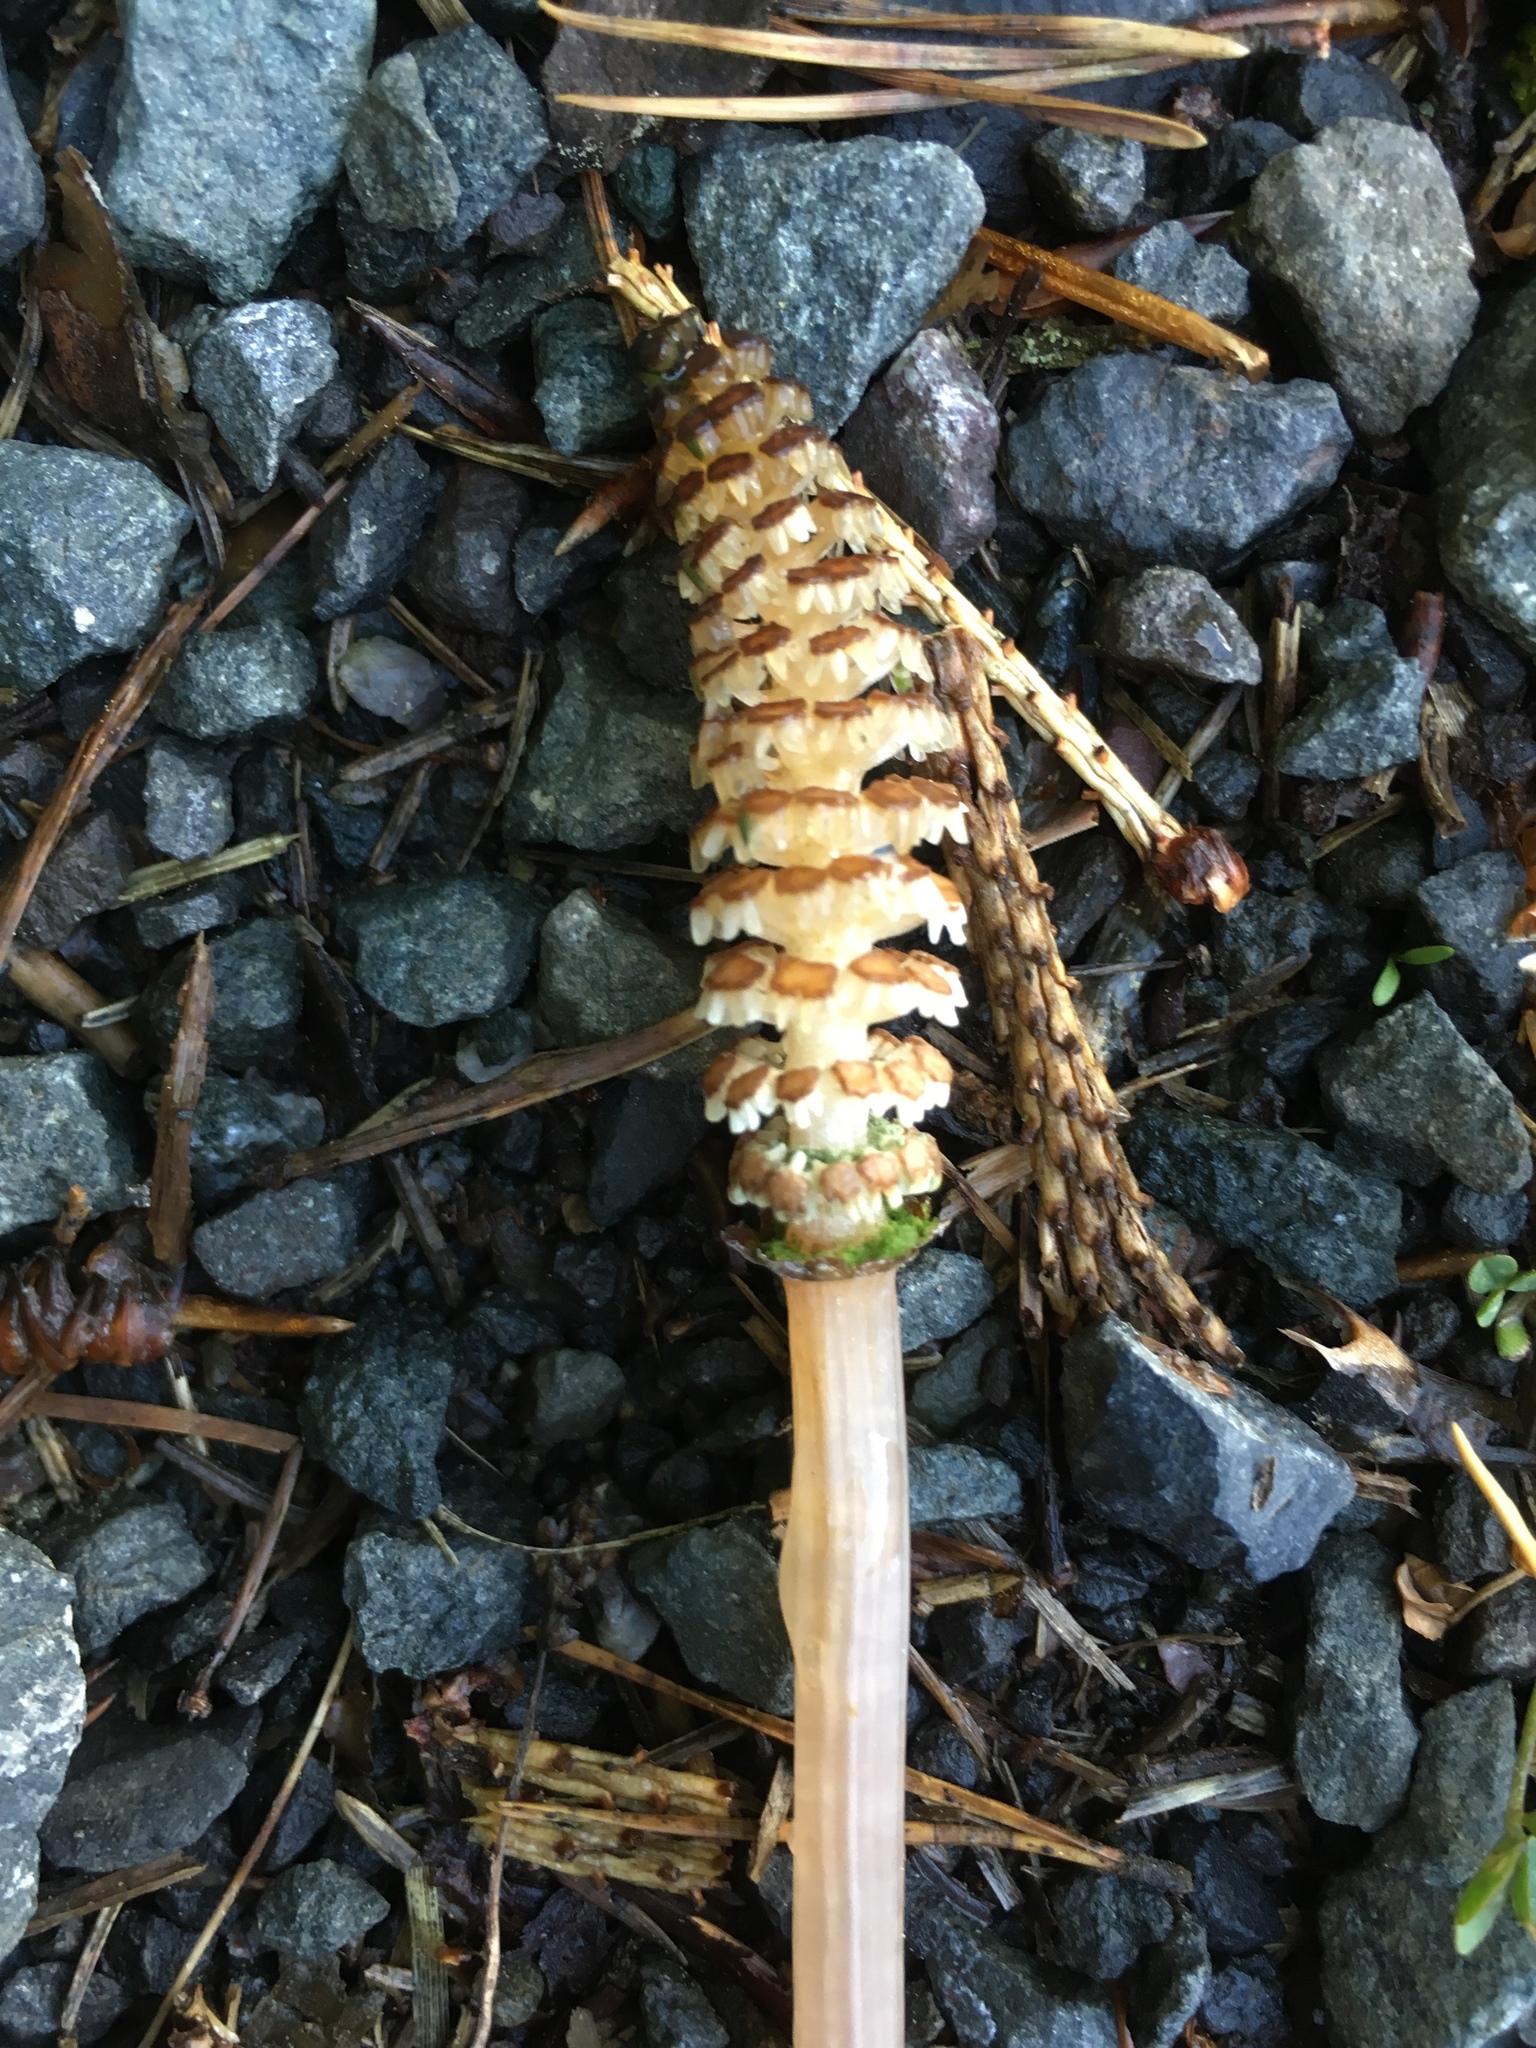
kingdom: Plantae
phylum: Tracheophyta
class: Polypodiopsida
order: Equisetales
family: Equisetaceae
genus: Equisetum
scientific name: Equisetum arvense
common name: Field horsetail
